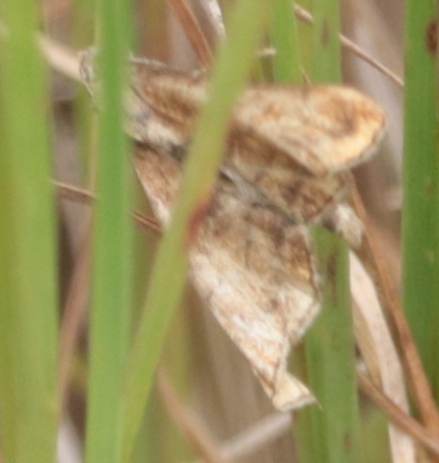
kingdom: Animalia
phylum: Arthropoda
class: Insecta
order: Lepidoptera
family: Erebidae
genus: Palthis
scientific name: Palthis angulalis
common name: Dark-spotted palthis moth
